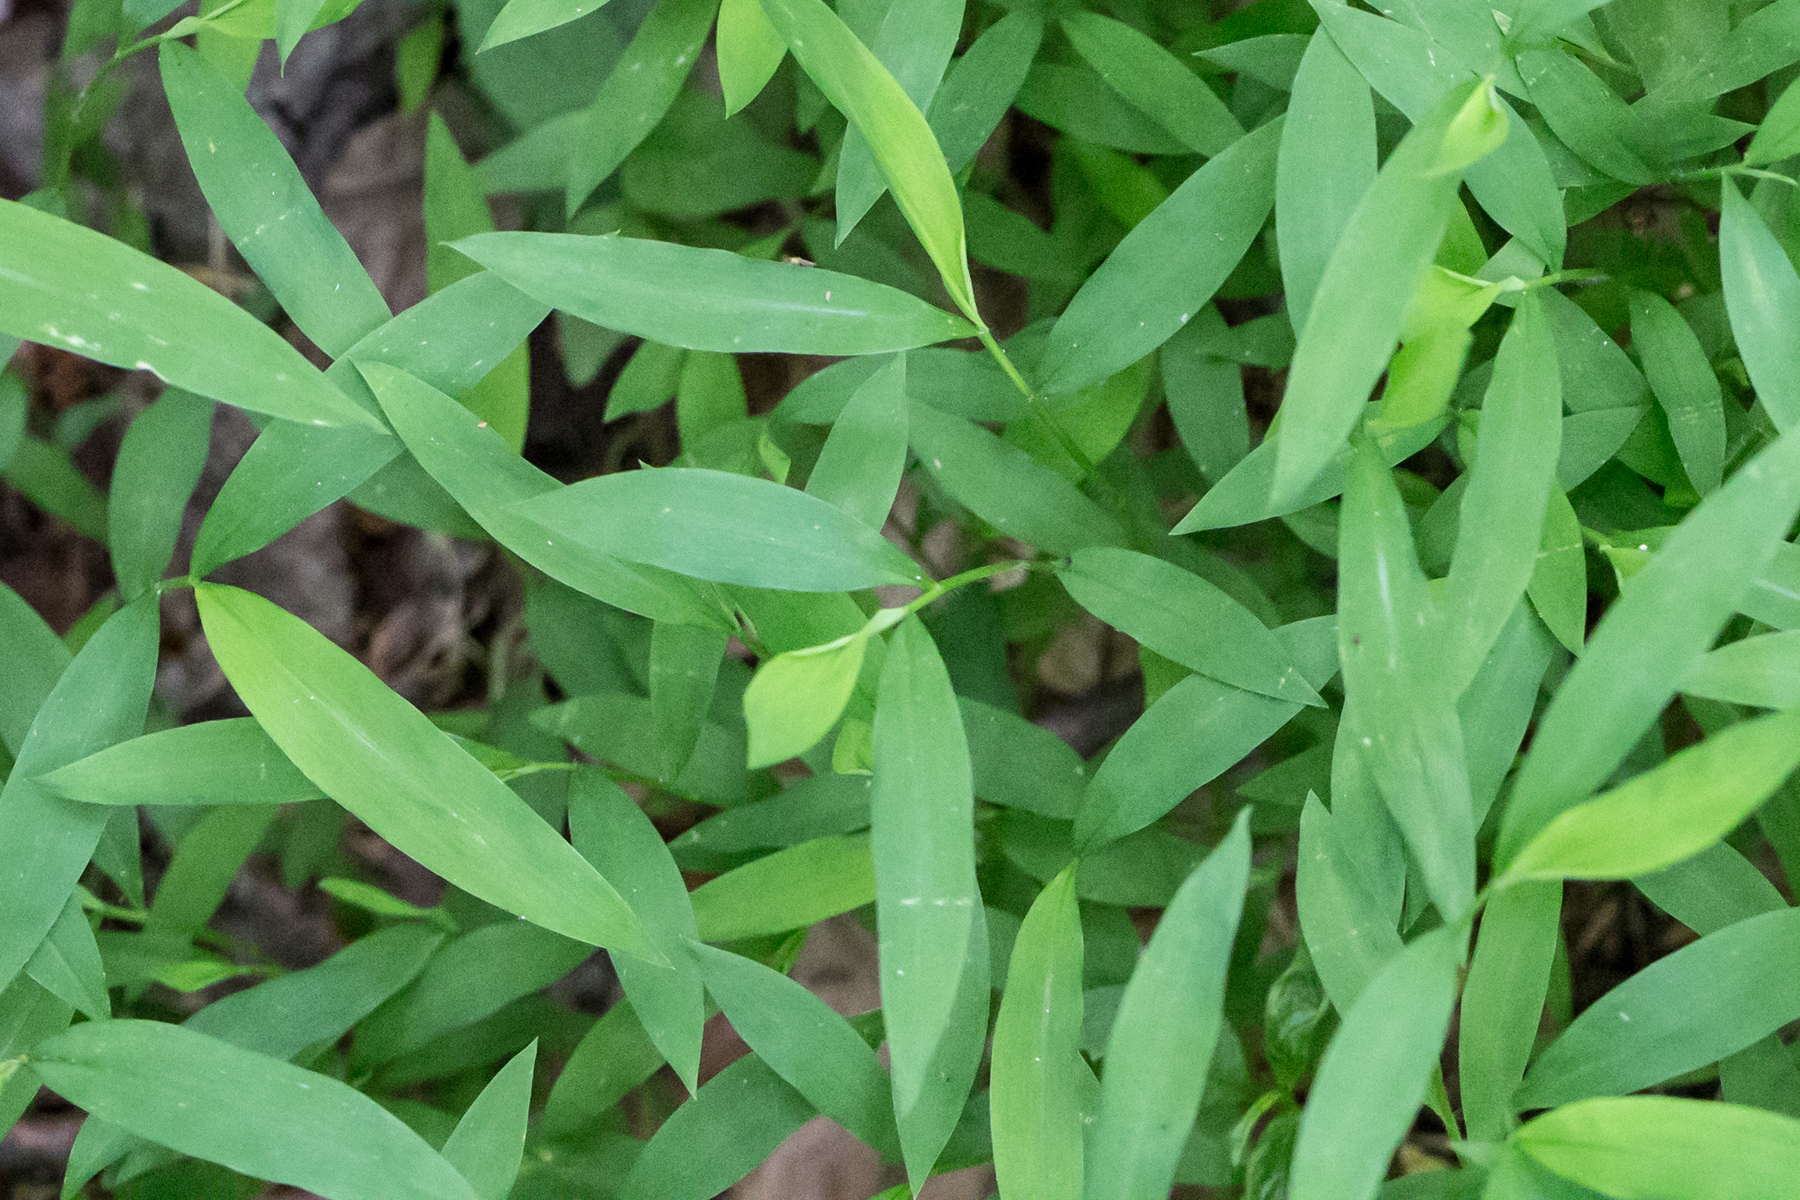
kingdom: Plantae
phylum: Tracheophyta
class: Liliopsida
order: Poales
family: Poaceae
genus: Microstegium
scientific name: Microstegium vimineum
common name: Japanese stiltgrass
